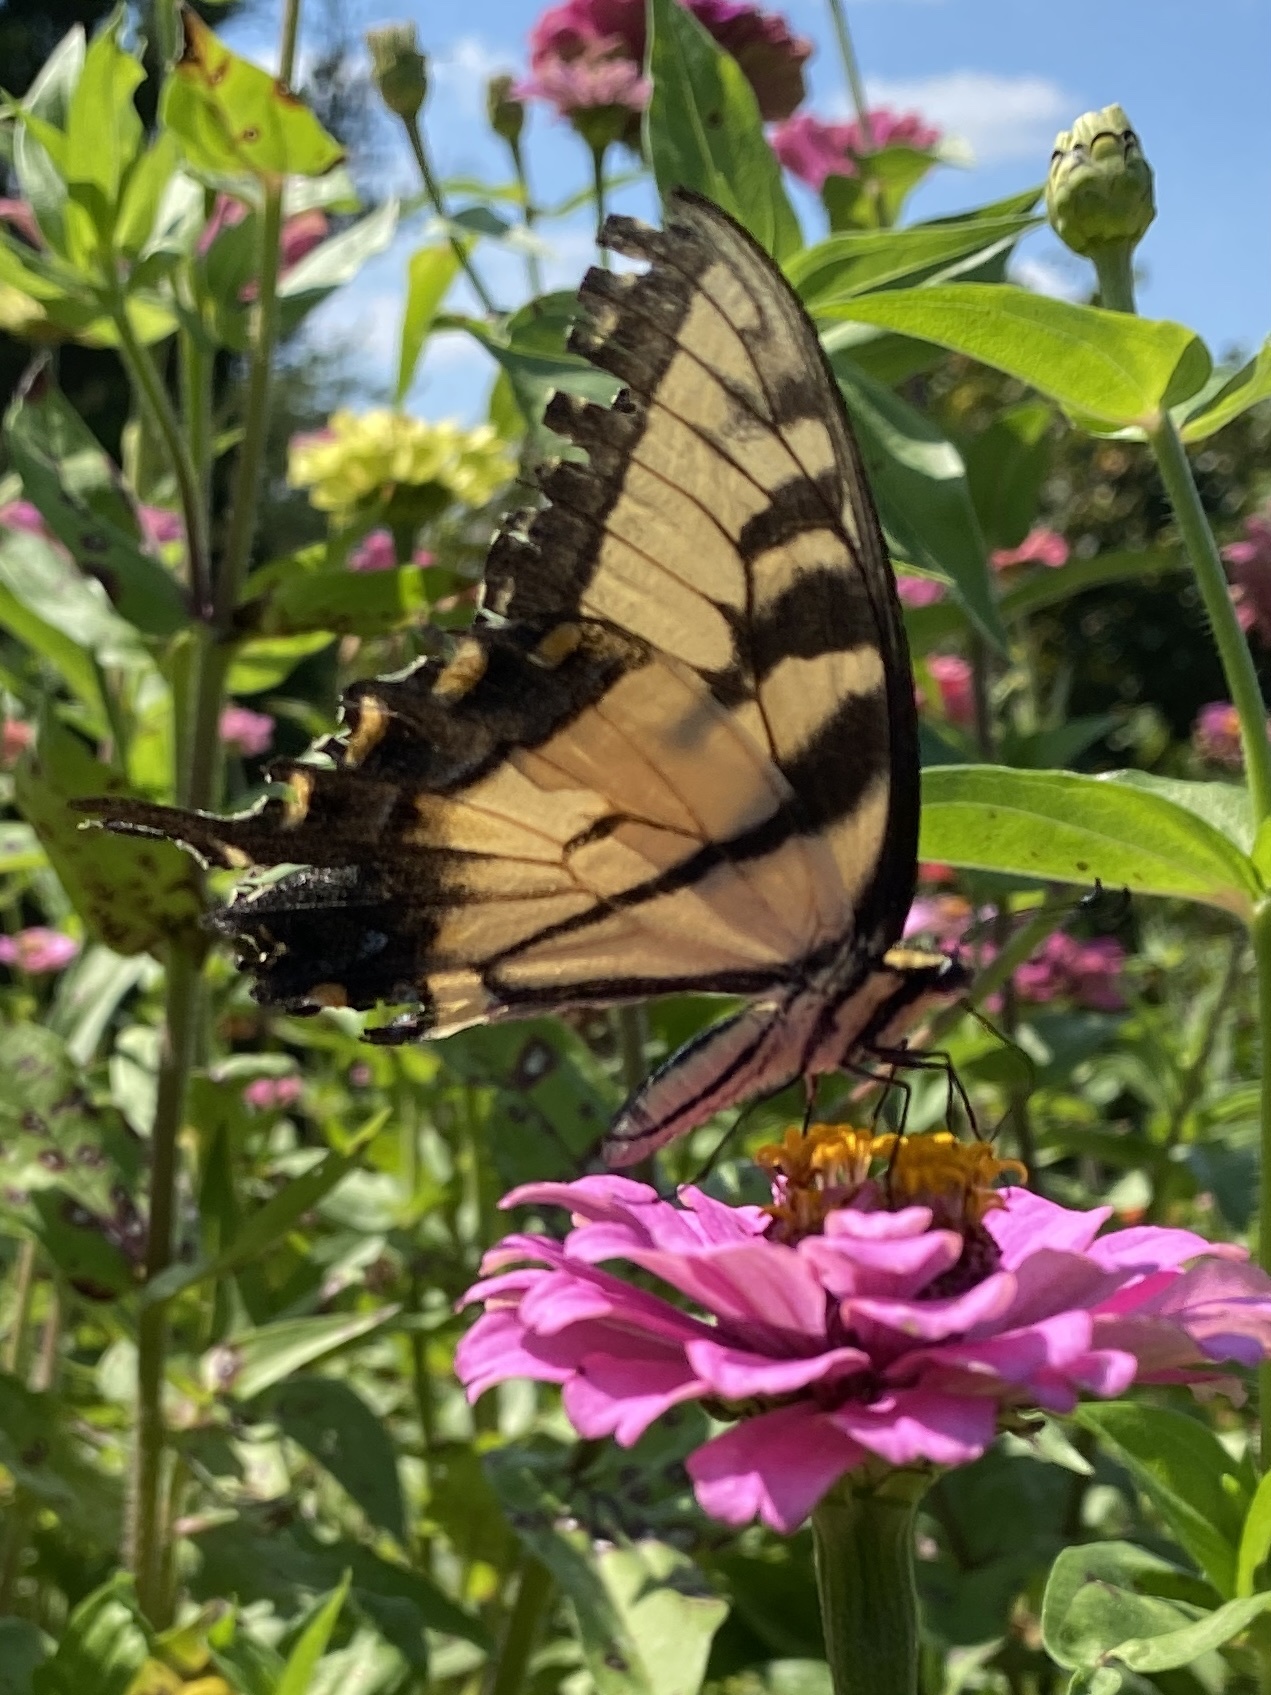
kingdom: Animalia
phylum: Arthropoda
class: Insecta
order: Lepidoptera
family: Papilionidae
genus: Papilio
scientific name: Papilio glaucus
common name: Tiger swallowtail
